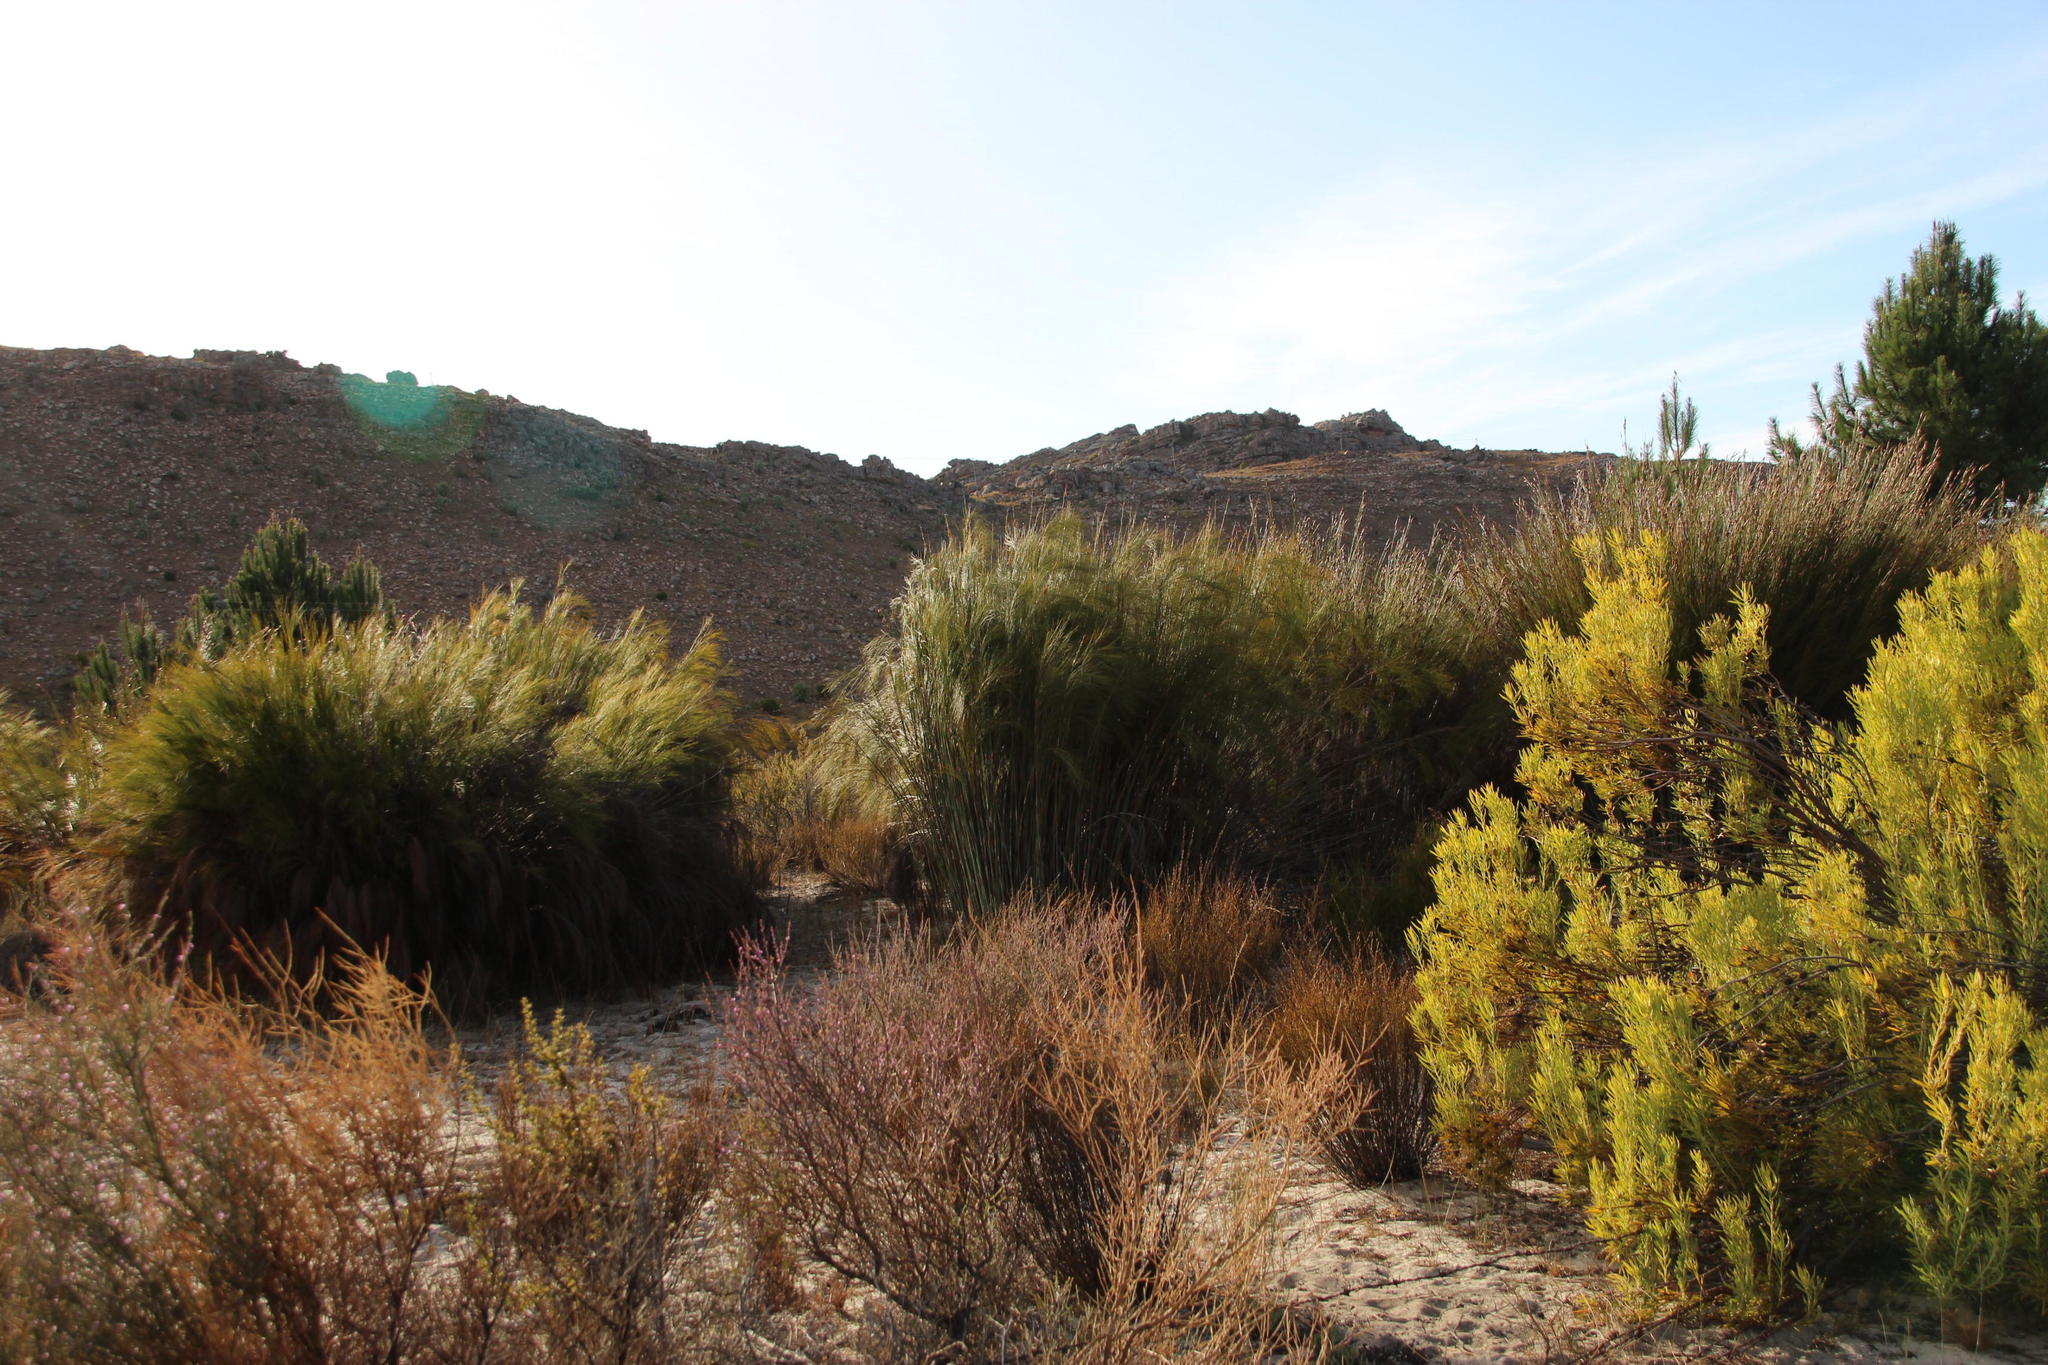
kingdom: Plantae
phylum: Tracheophyta
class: Liliopsida
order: Poales
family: Restionaceae
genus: Cannomois
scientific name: Cannomois robusta
